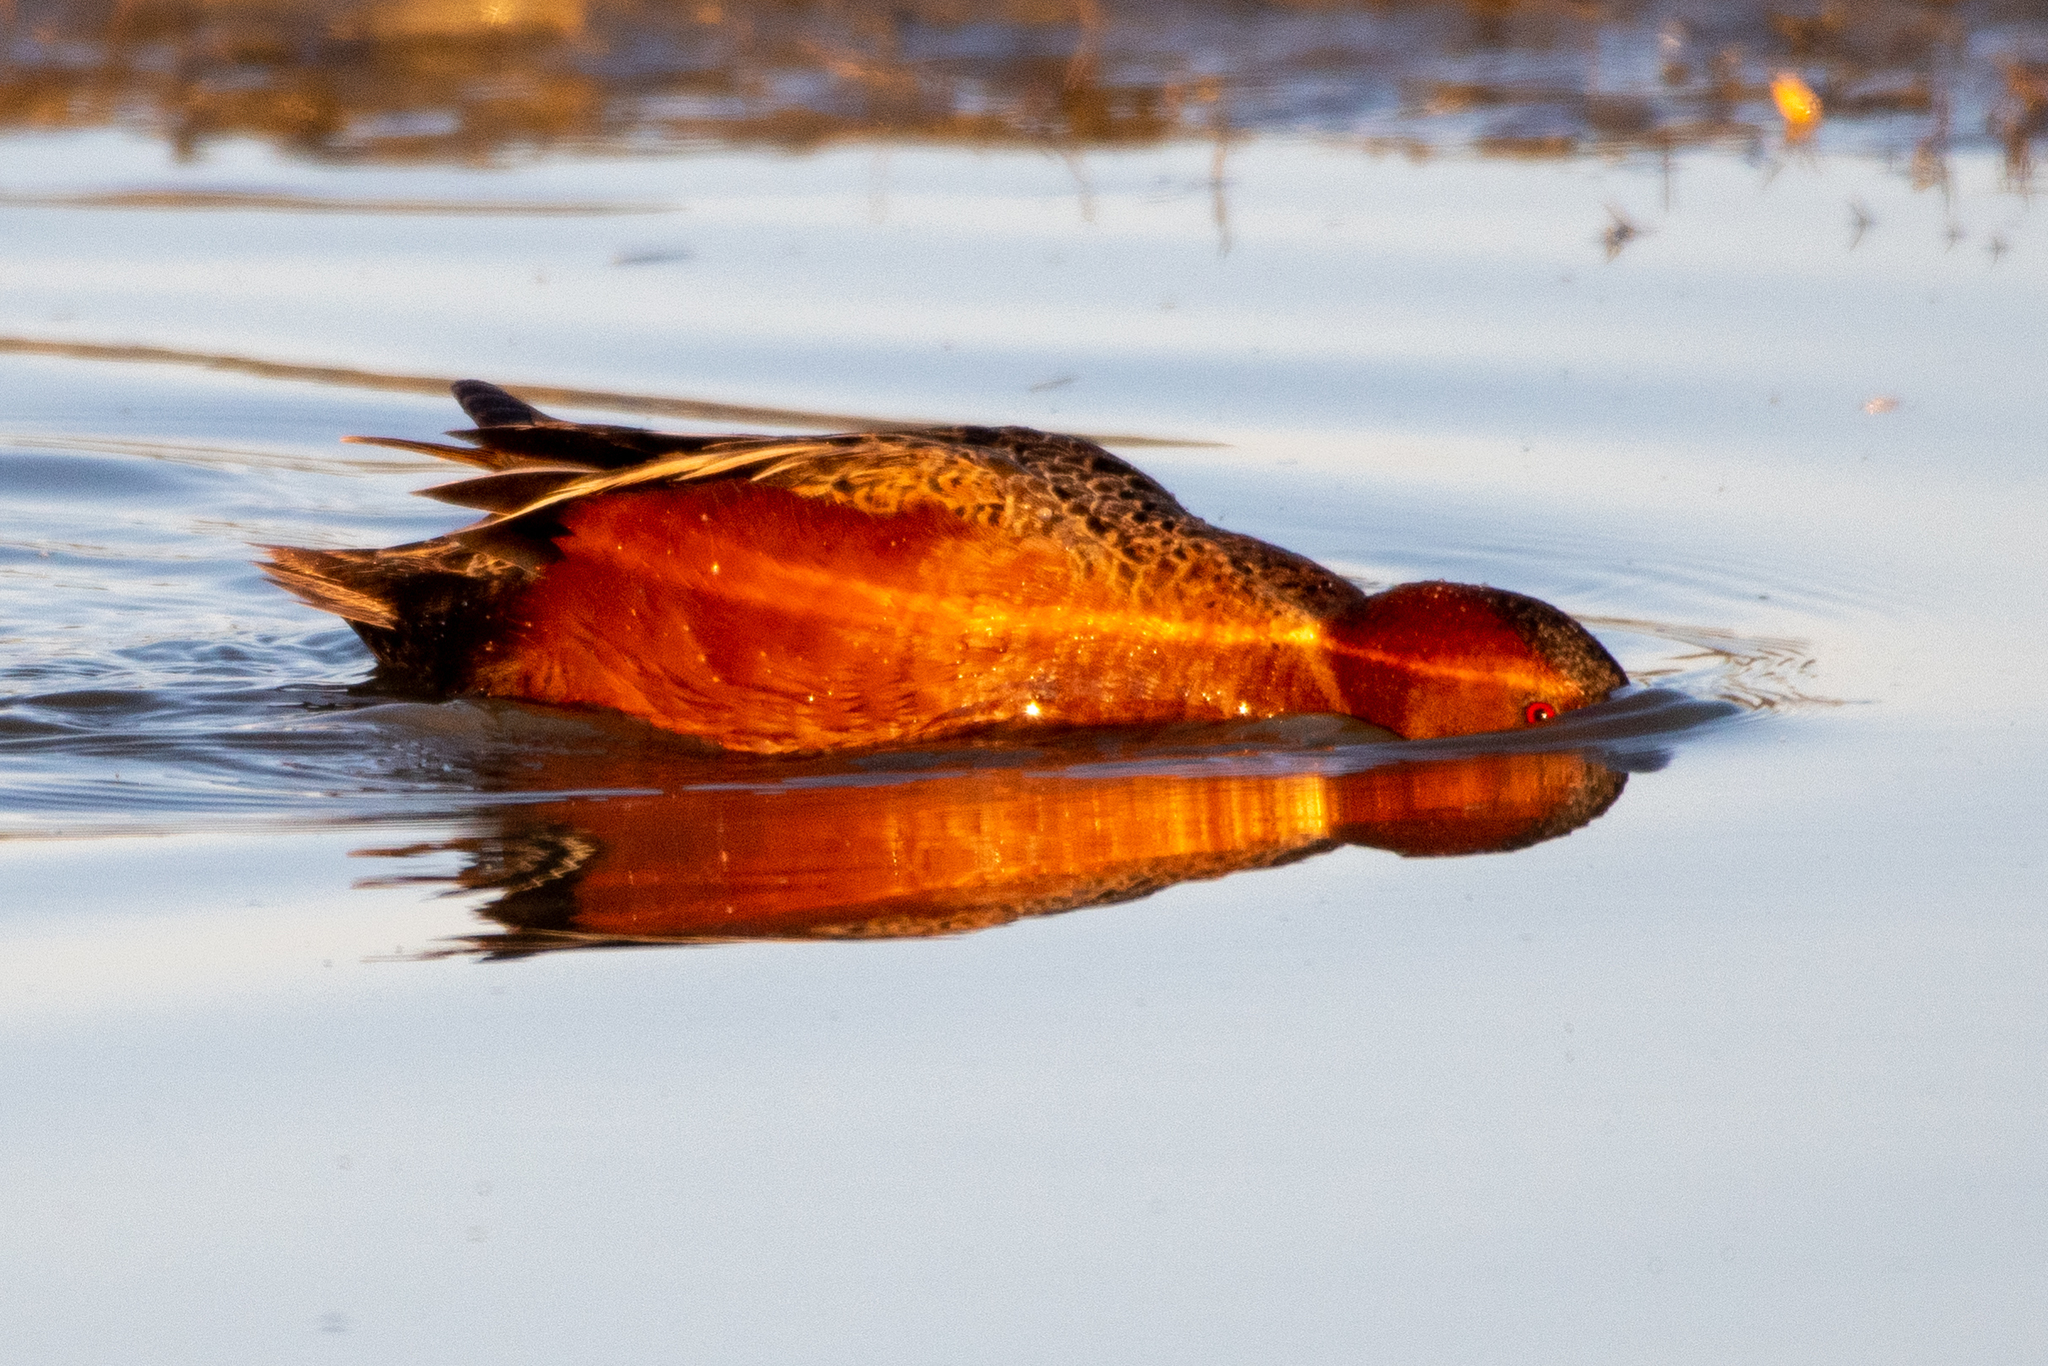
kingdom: Animalia
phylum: Chordata
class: Aves
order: Anseriformes
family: Anatidae
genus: Spatula
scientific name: Spatula cyanoptera
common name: Cinnamon teal
